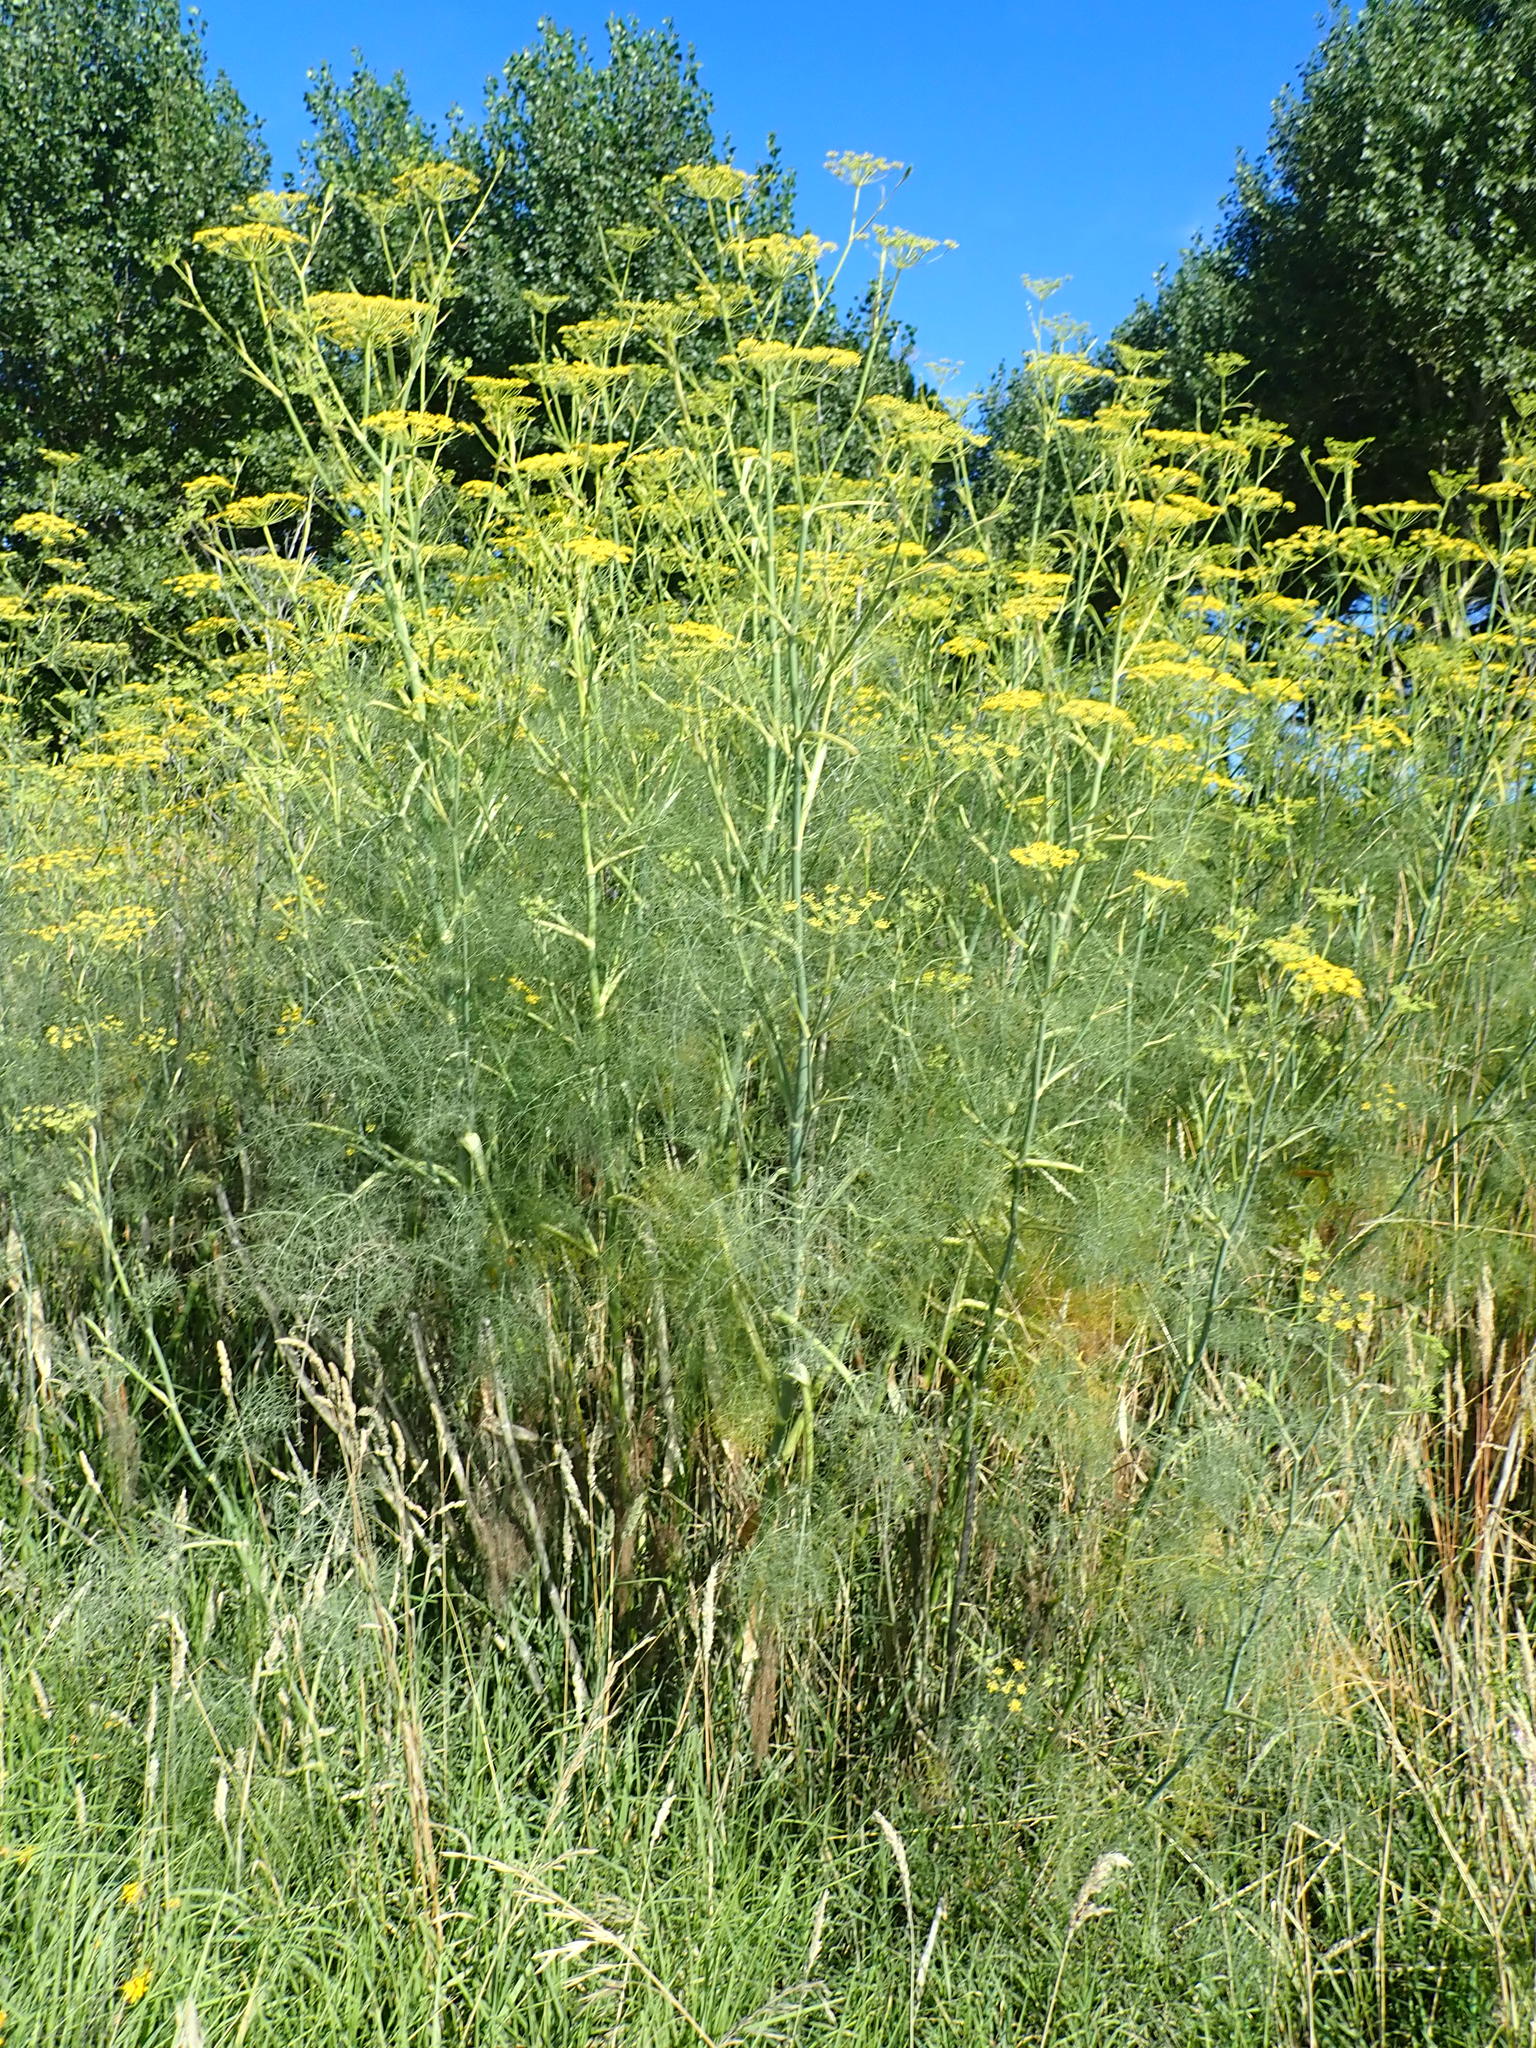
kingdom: Plantae
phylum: Tracheophyta
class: Magnoliopsida
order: Apiales
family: Apiaceae
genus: Foeniculum
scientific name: Foeniculum vulgare
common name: Fennel
